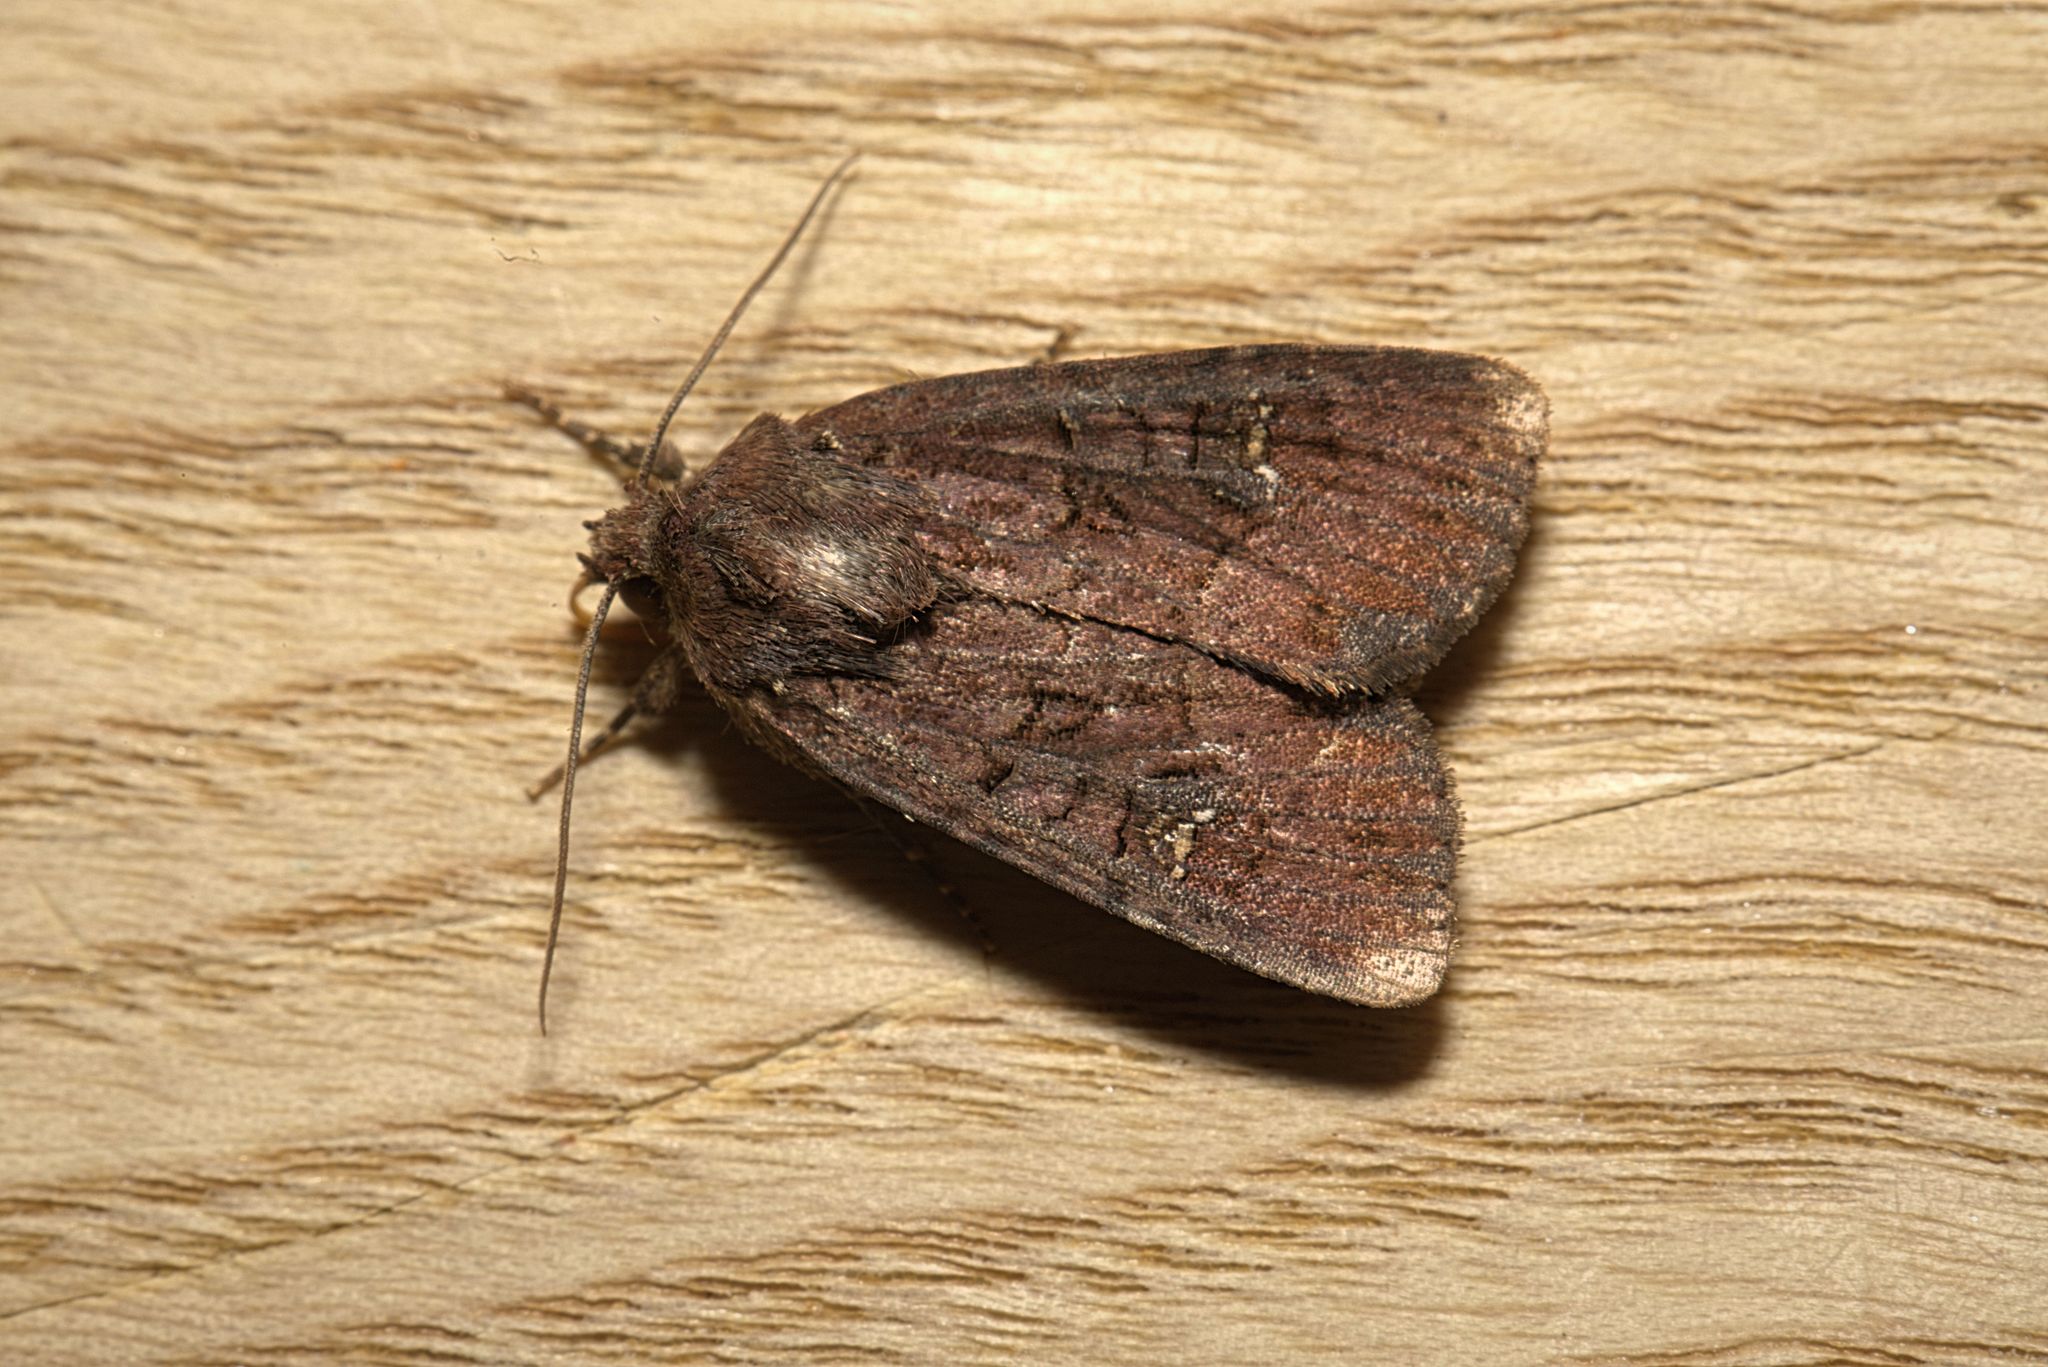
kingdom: Animalia
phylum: Arthropoda
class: Insecta
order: Lepidoptera
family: Noctuidae
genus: Mesapamea
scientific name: Mesapamea
